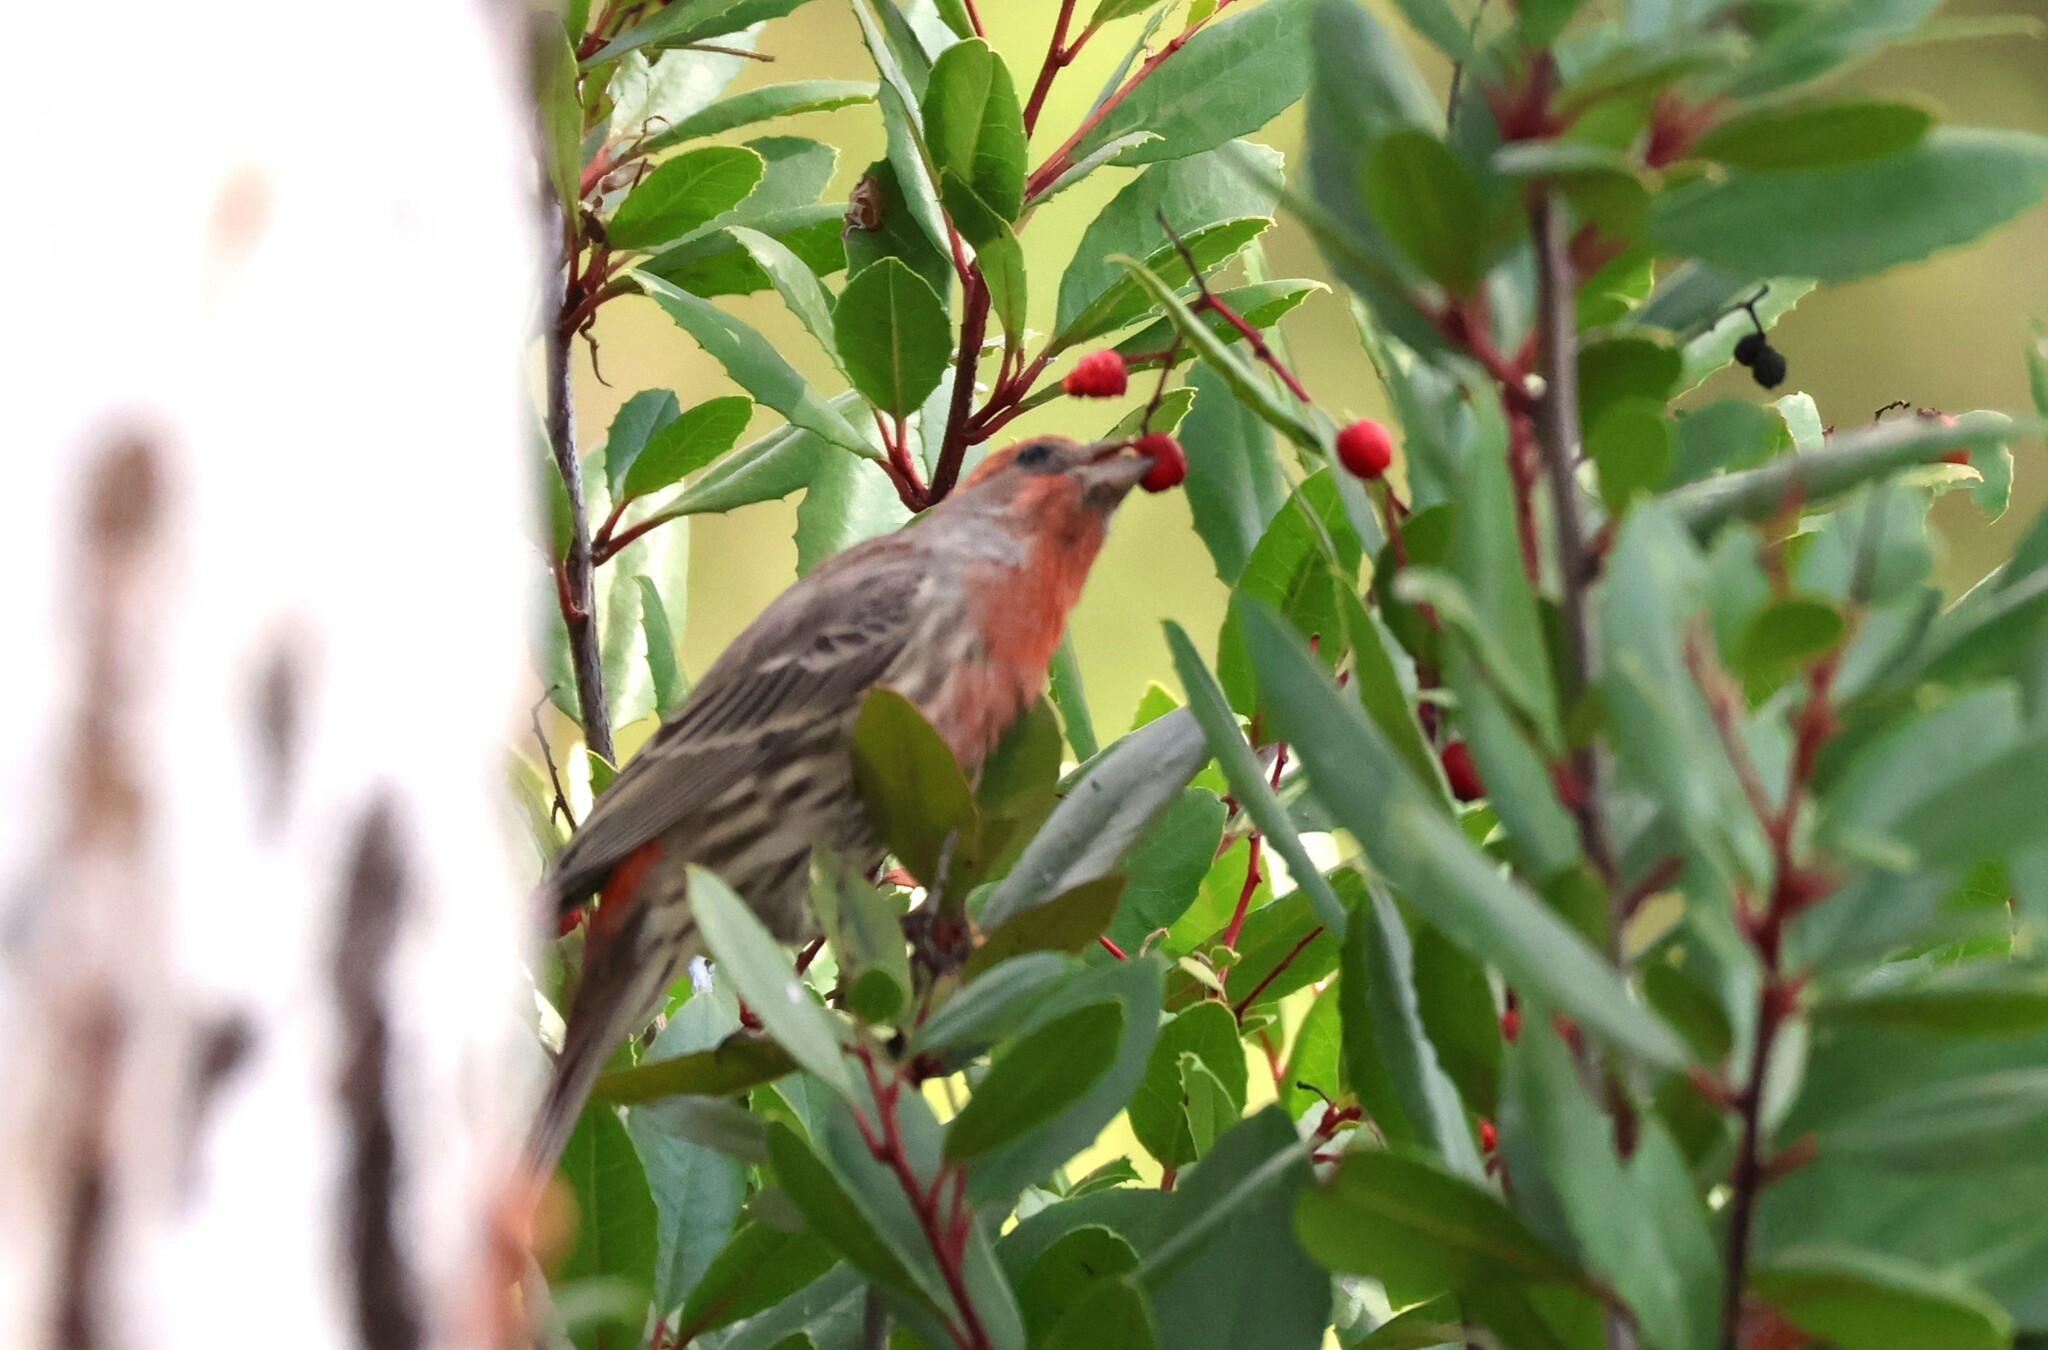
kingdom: Animalia
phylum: Chordata
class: Aves
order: Passeriformes
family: Fringillidae
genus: Haemorhous
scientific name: Haemorhous mexicanus
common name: House finch
